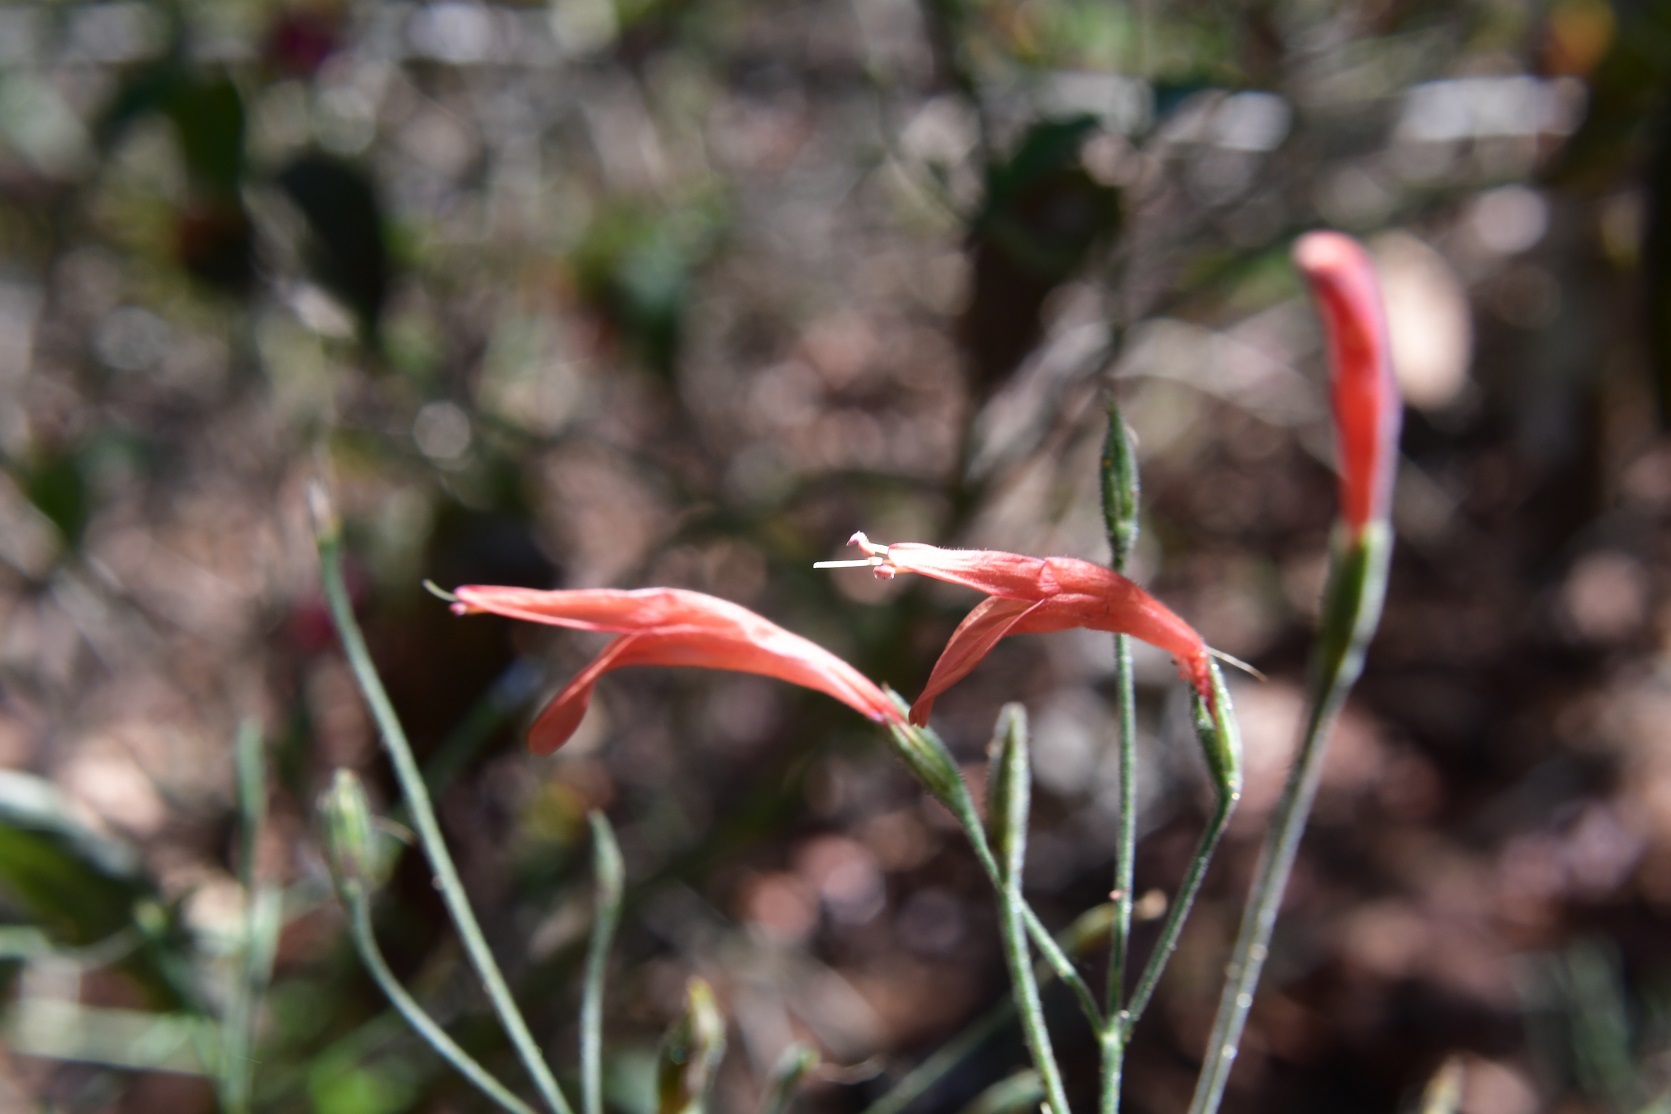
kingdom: Plantae
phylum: Tracheophyta
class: Magnoliopsida
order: Lamiales
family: Acanthaceae
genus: Dicliptera
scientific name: Dicliptera sciadephora
